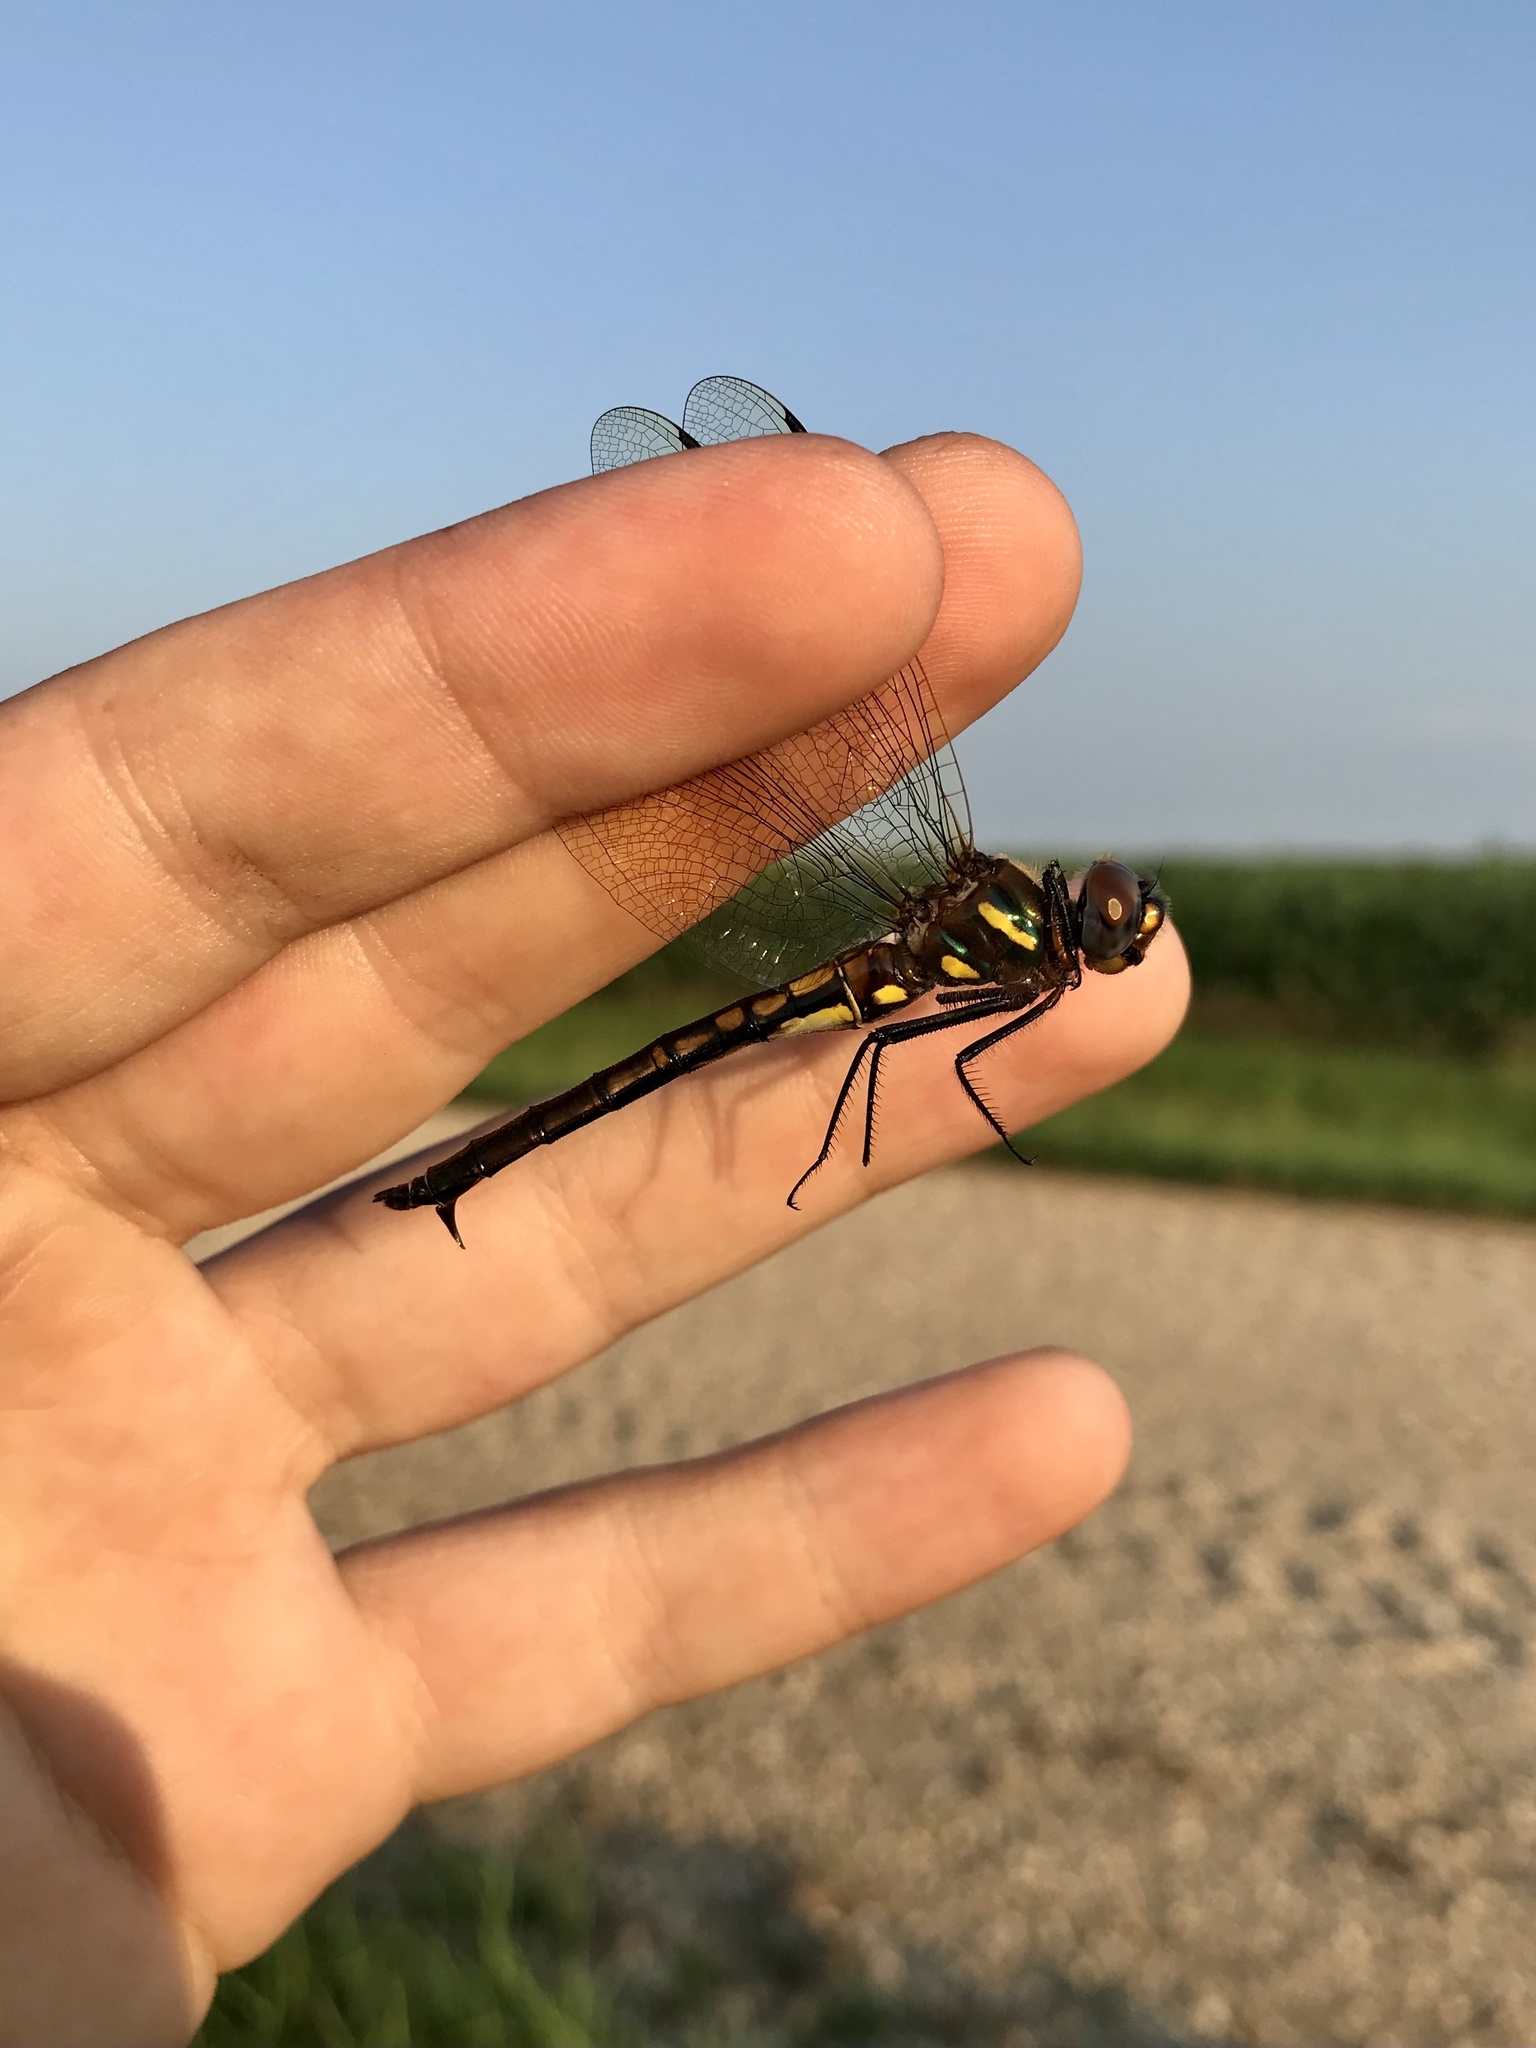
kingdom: Animalia
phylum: Arthropoda
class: Insecta
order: Odonata
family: Corduliidae
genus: Somatochlora
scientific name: Somatochlora ensigera
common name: Plains emerald
